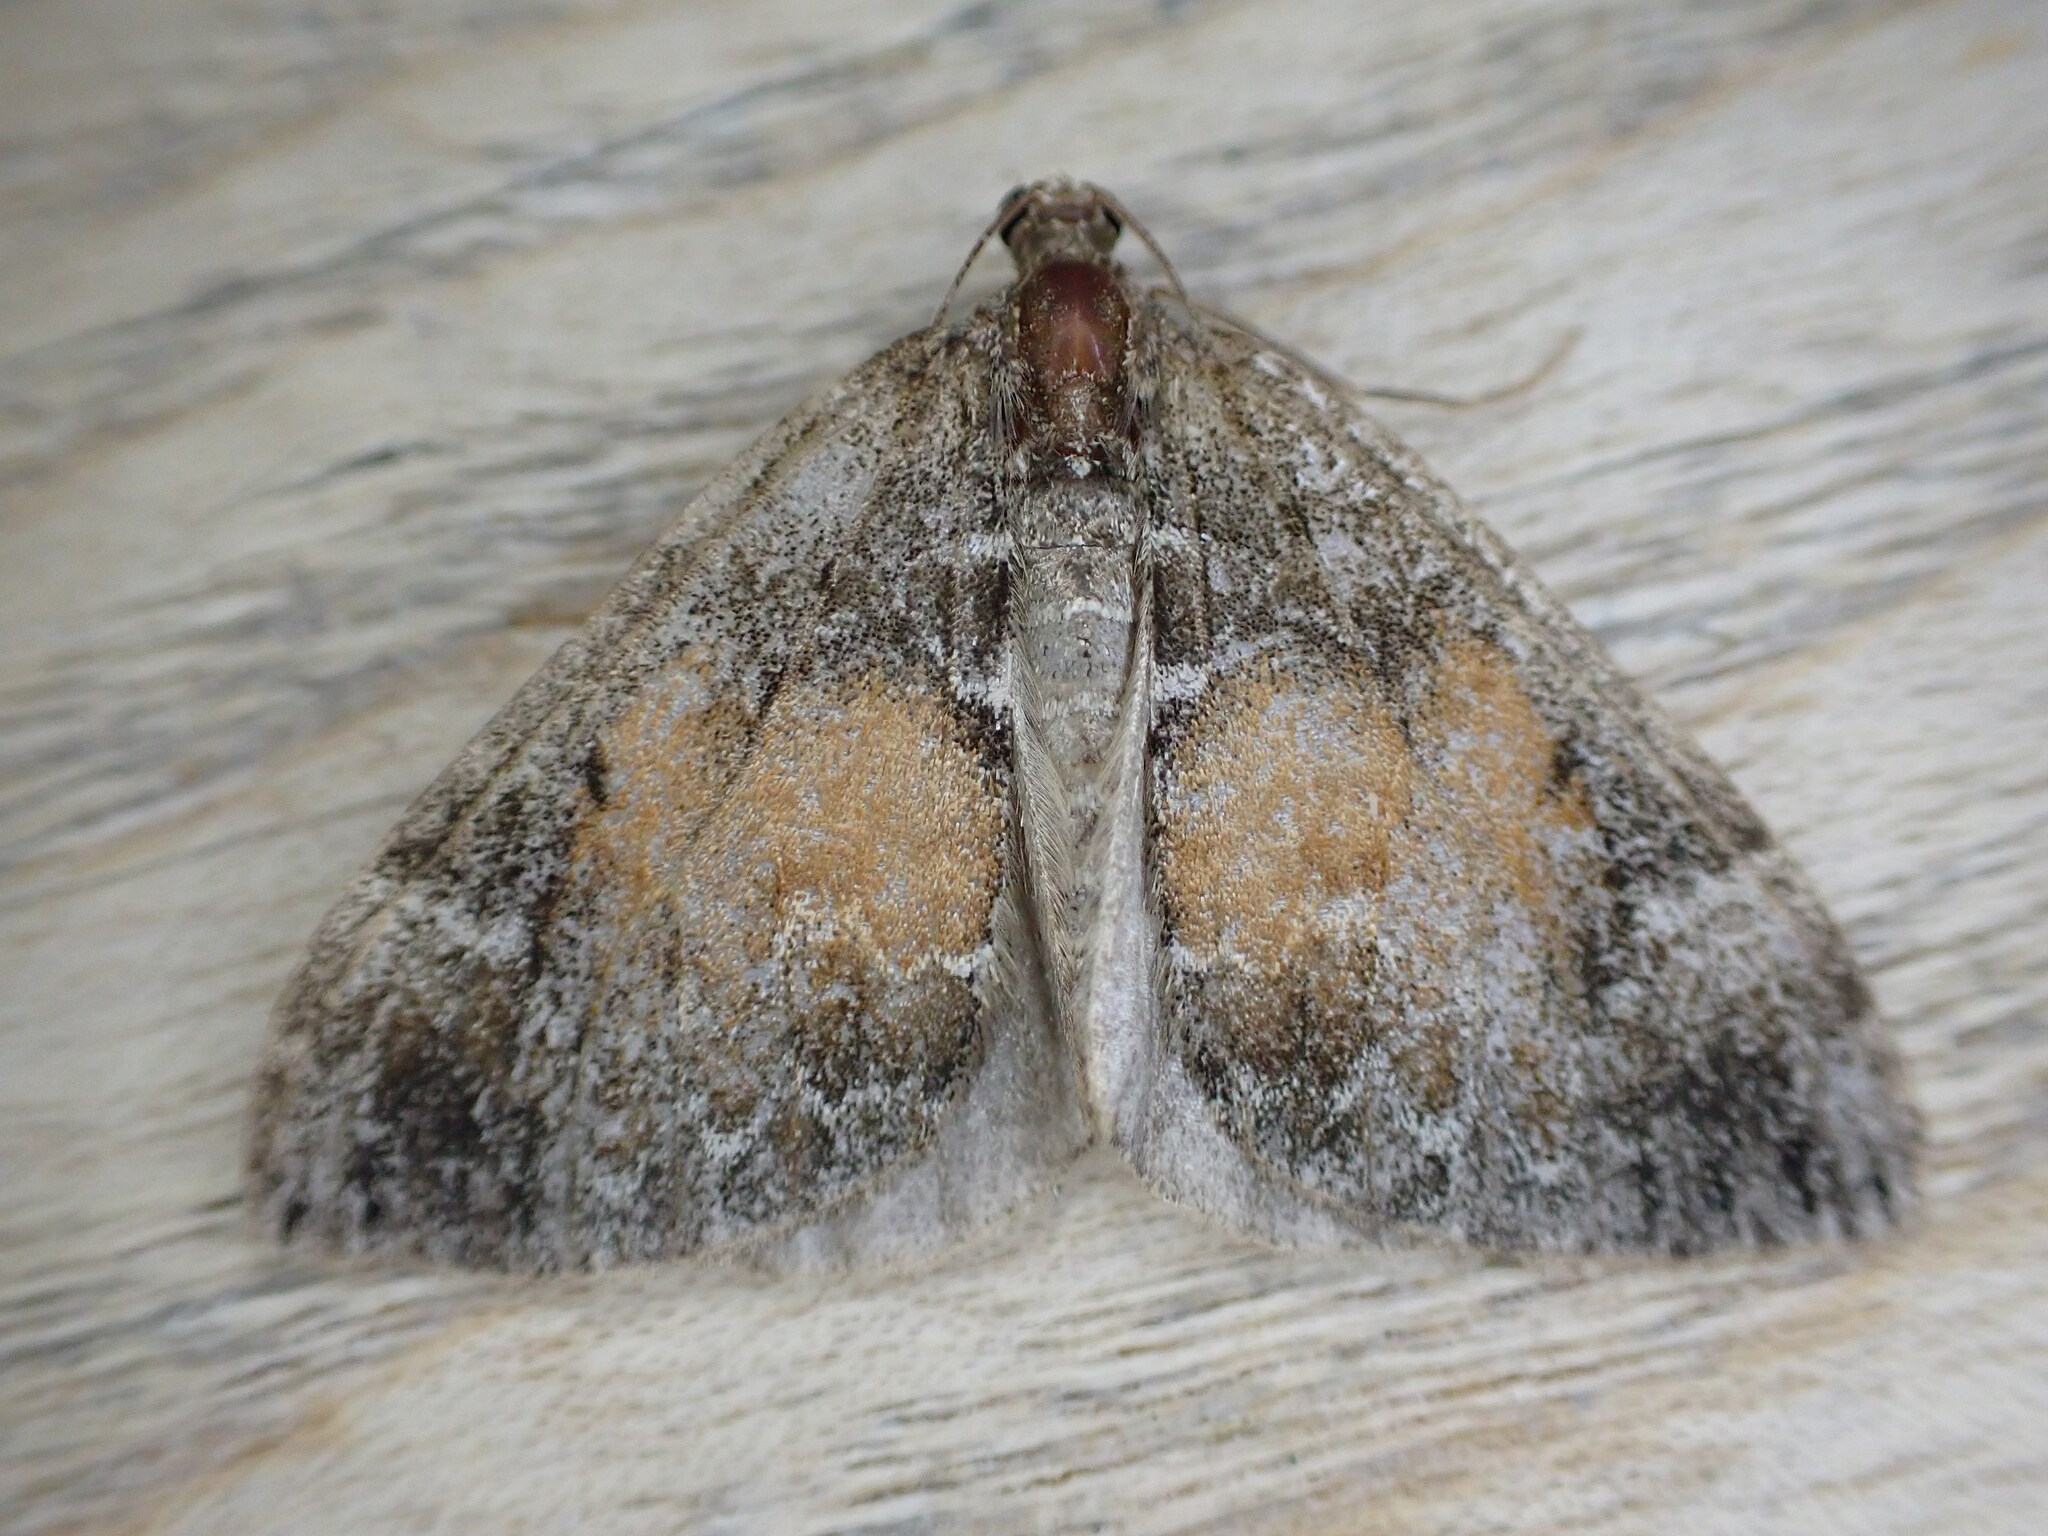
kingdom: Animalia
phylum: Arthropoda
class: Insecta
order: Lepidoptera
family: Geometridae
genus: Dysstroma
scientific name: Dysstroma truncata
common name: Common marbled carpet
